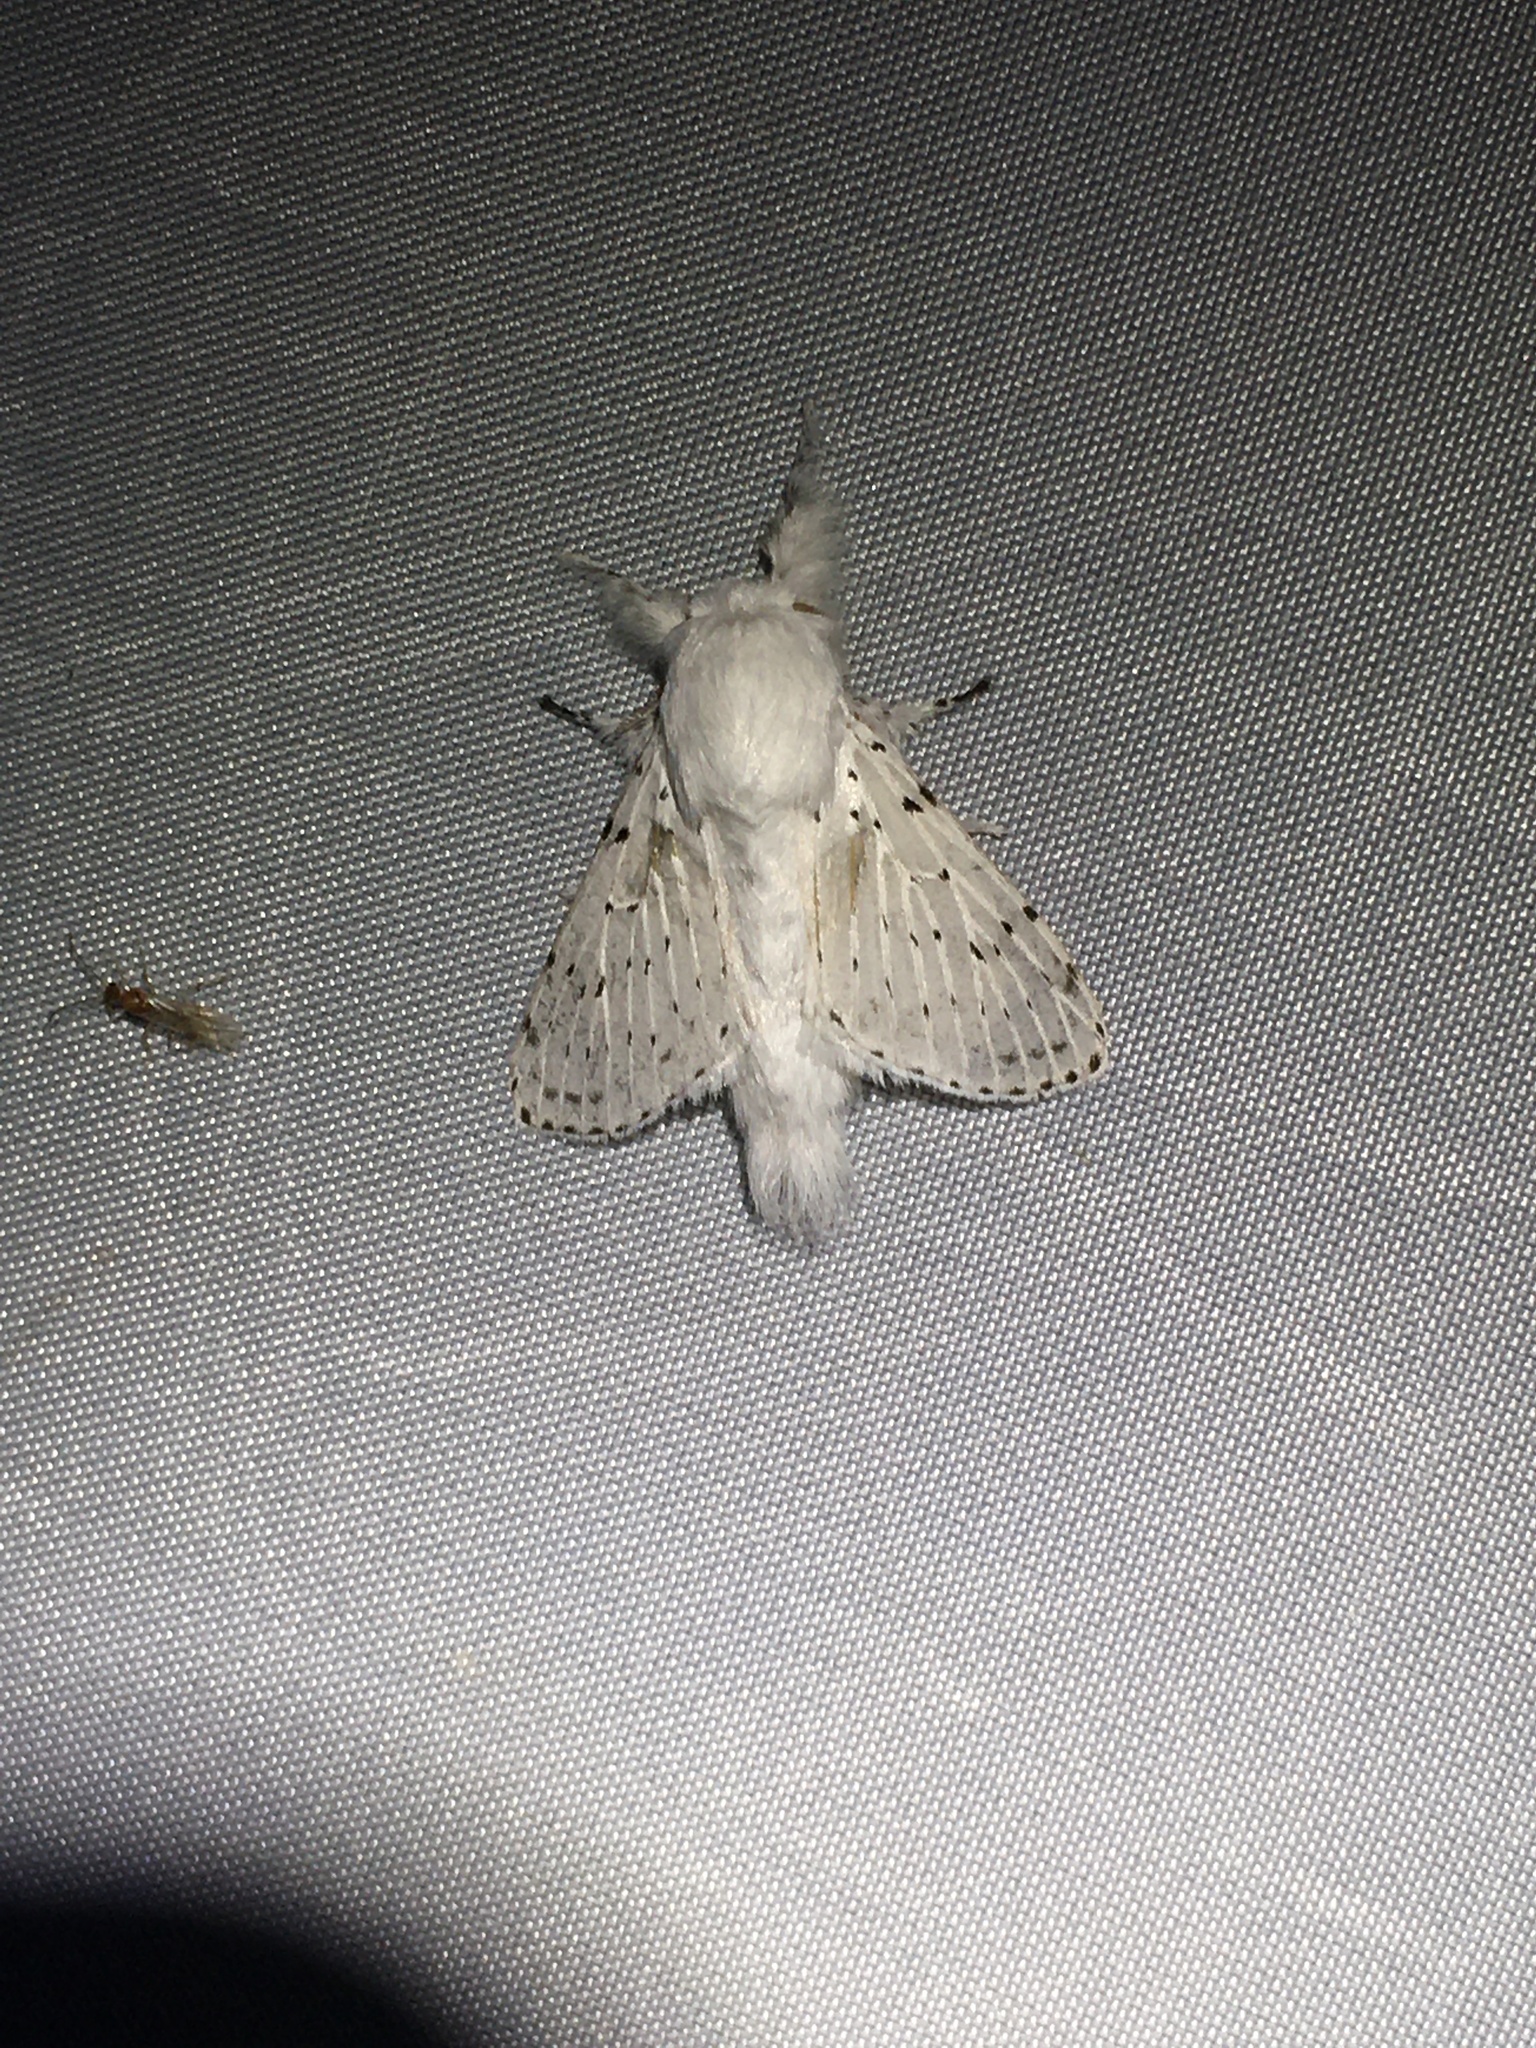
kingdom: Animalia
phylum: Arthropoda
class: Insecta
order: Lepidoptera
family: Lasiocampidae
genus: Artace
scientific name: Artace cribrarius
